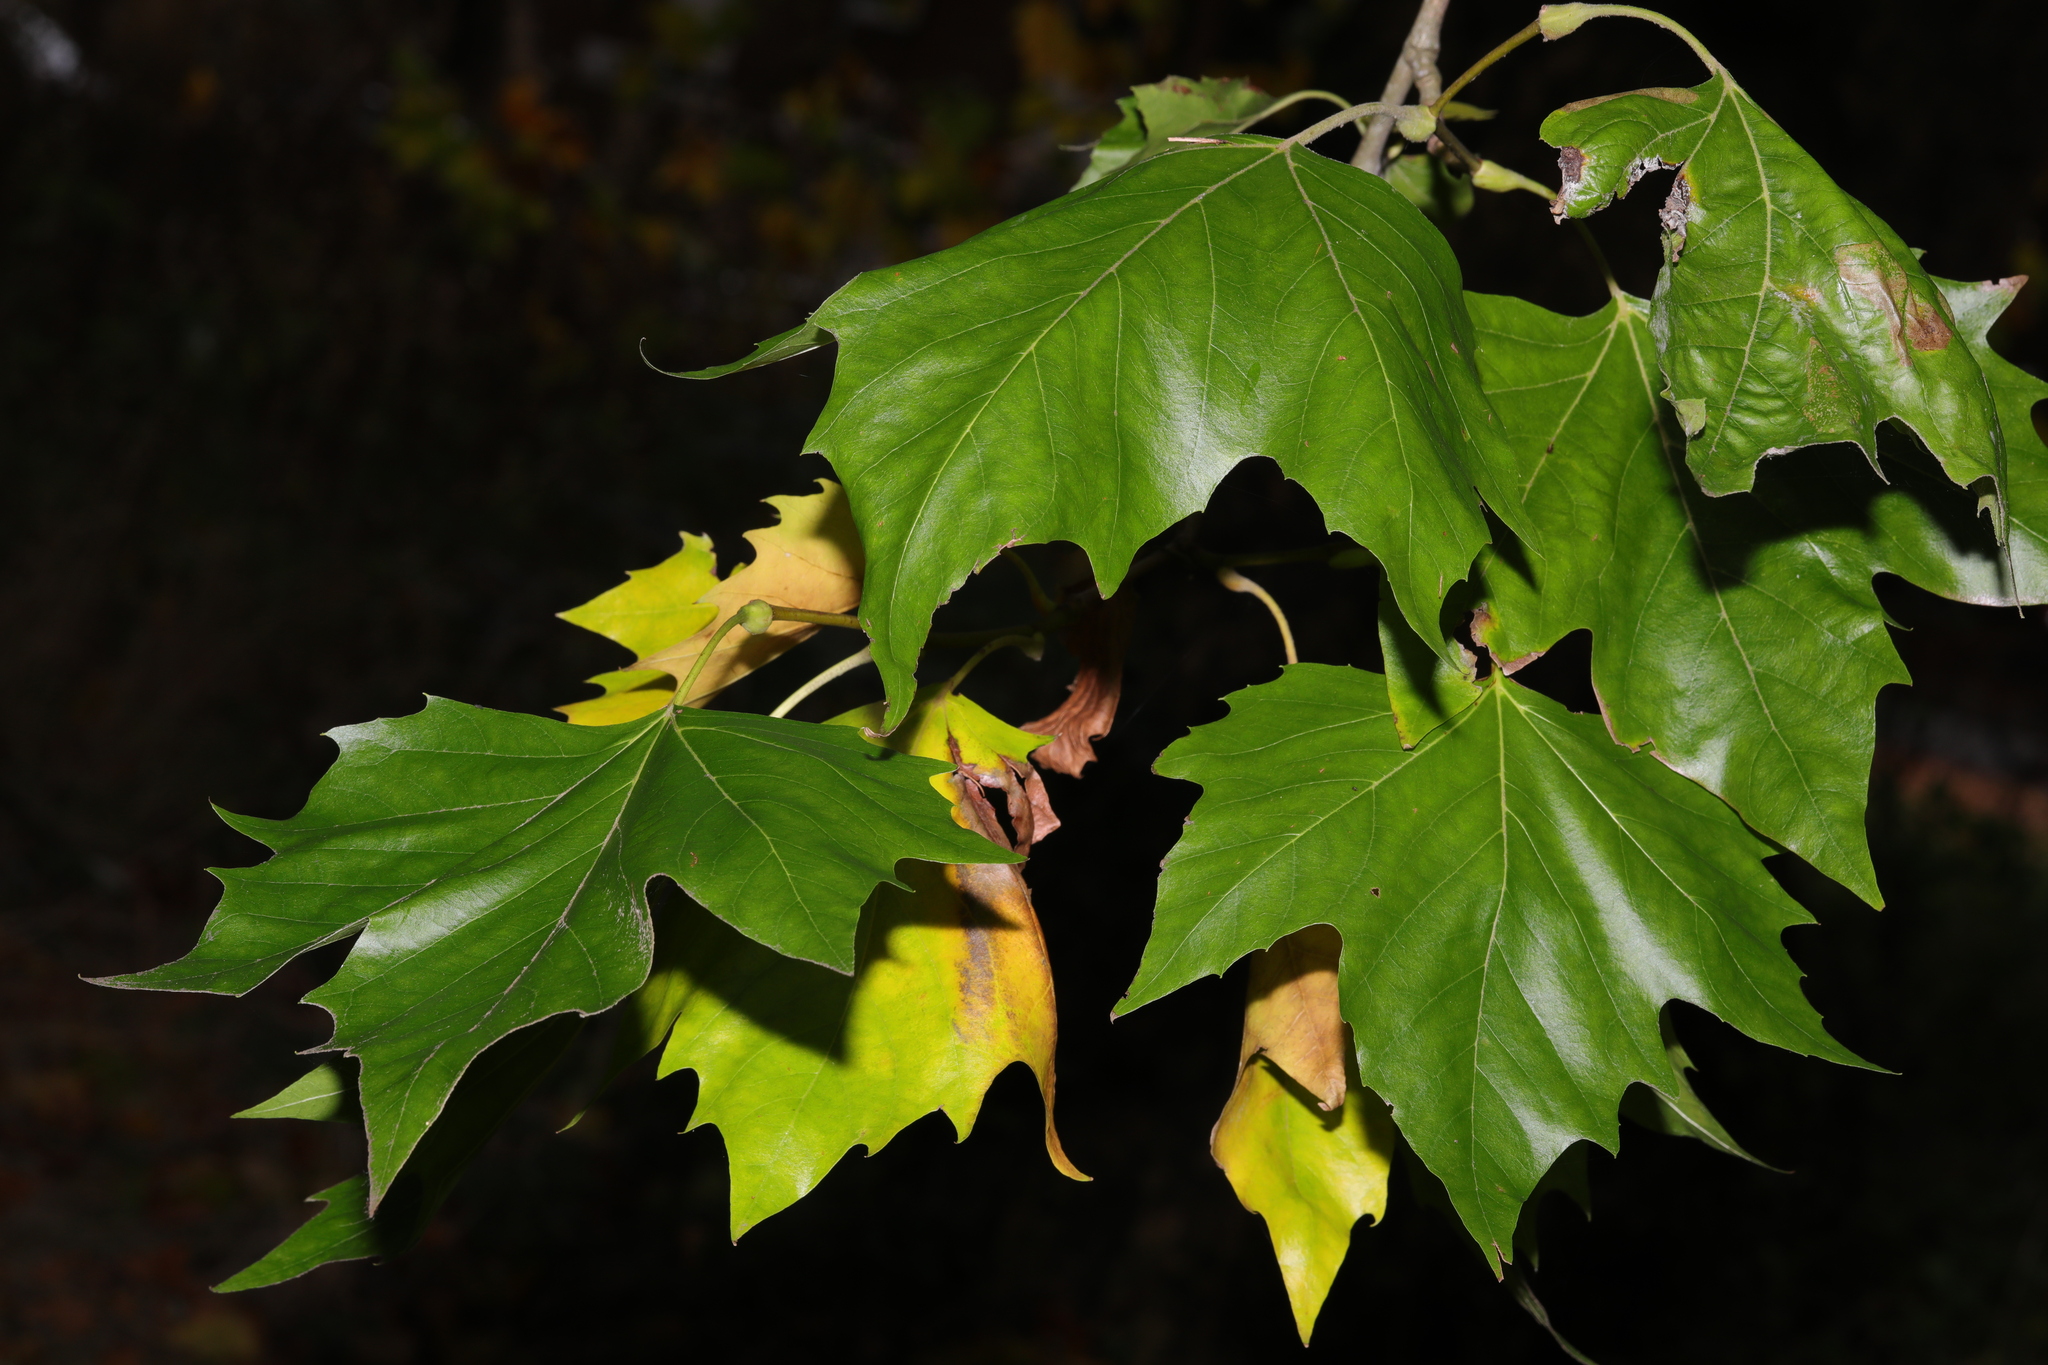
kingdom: Plantae
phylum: Tracheophyta
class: Magnoliopsida
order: Proteales
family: Platanaceae
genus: Platanus
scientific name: Platanus hispanica
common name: London plane
